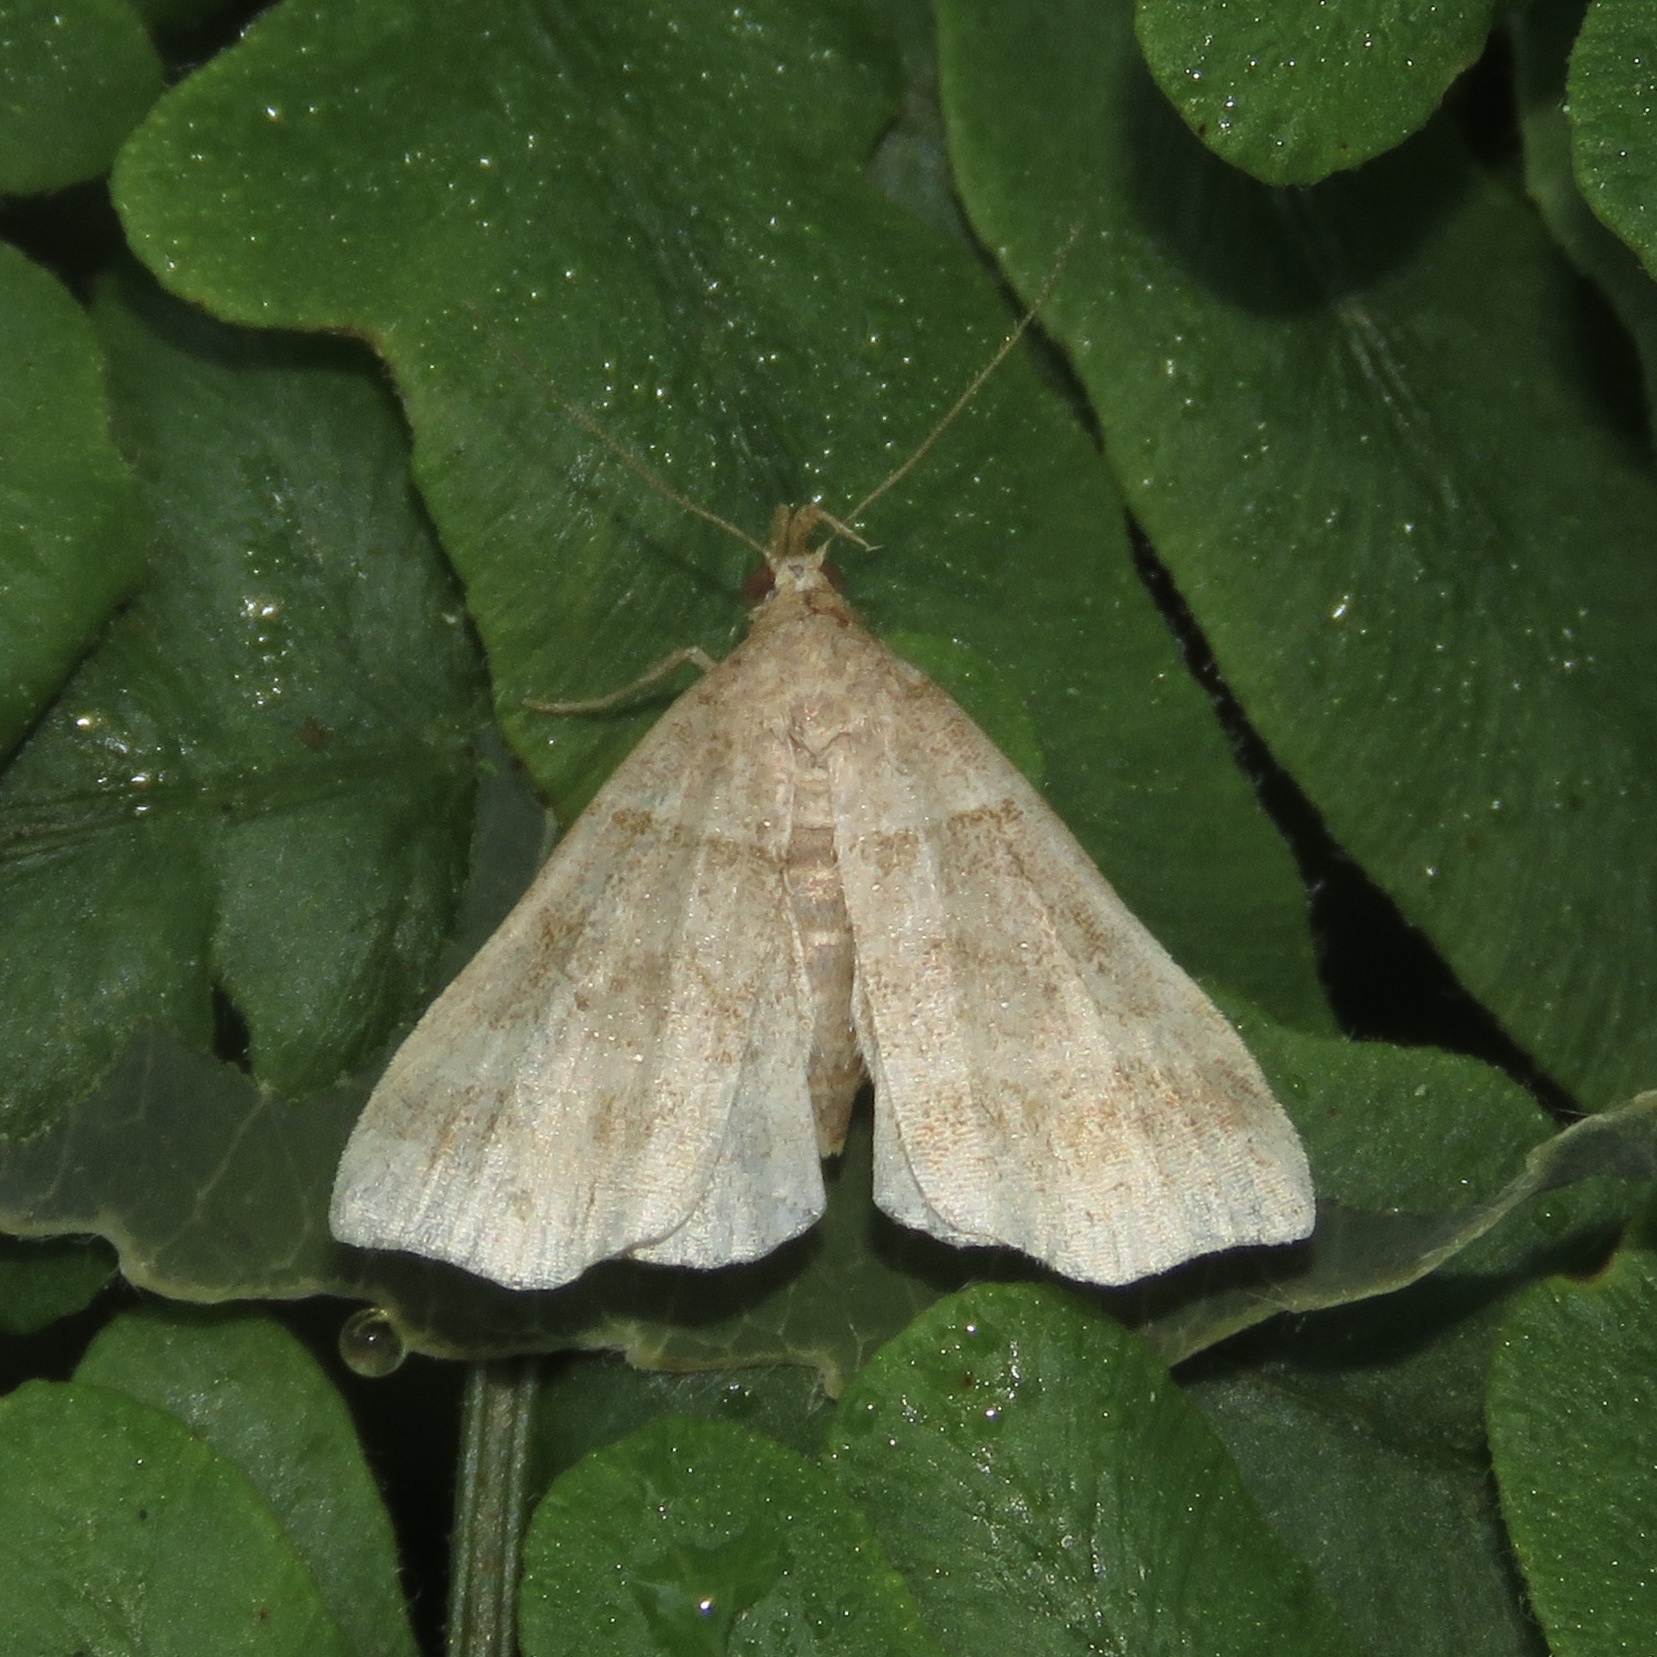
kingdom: Animalia
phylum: Arthropoda
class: Insecta
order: Lepidoptera
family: Erebidae
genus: Phaeolita
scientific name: Phaeolita pyramusalis
